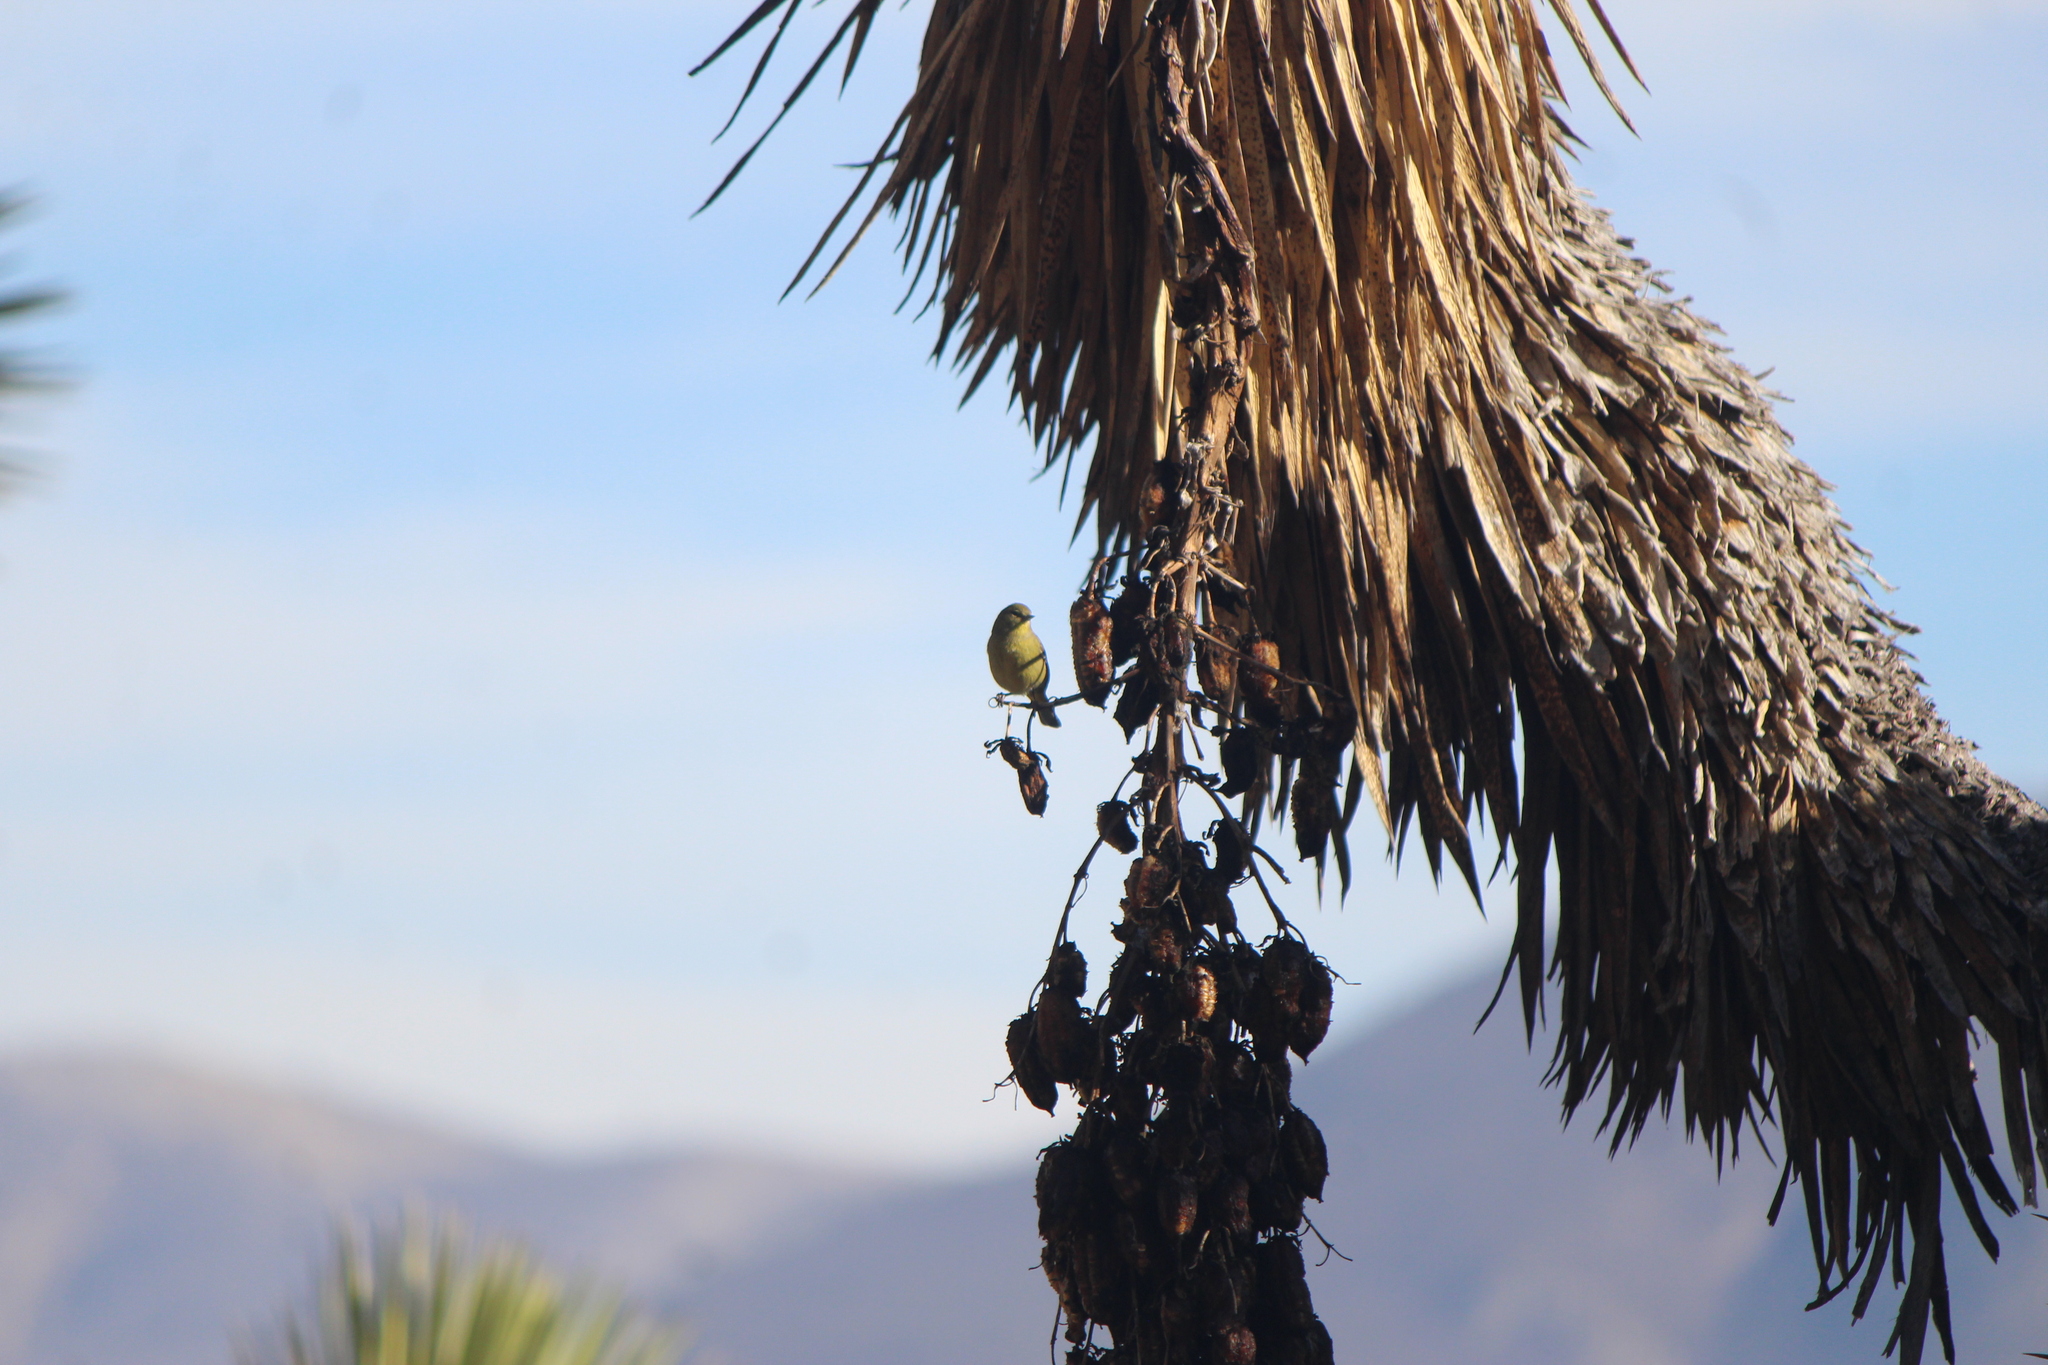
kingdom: Animalia
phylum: Chordata
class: Aves
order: Passeriformes
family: Parulidae
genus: Leiothlypis
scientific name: Leiothlypis celata
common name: Orange-crowned warbler
